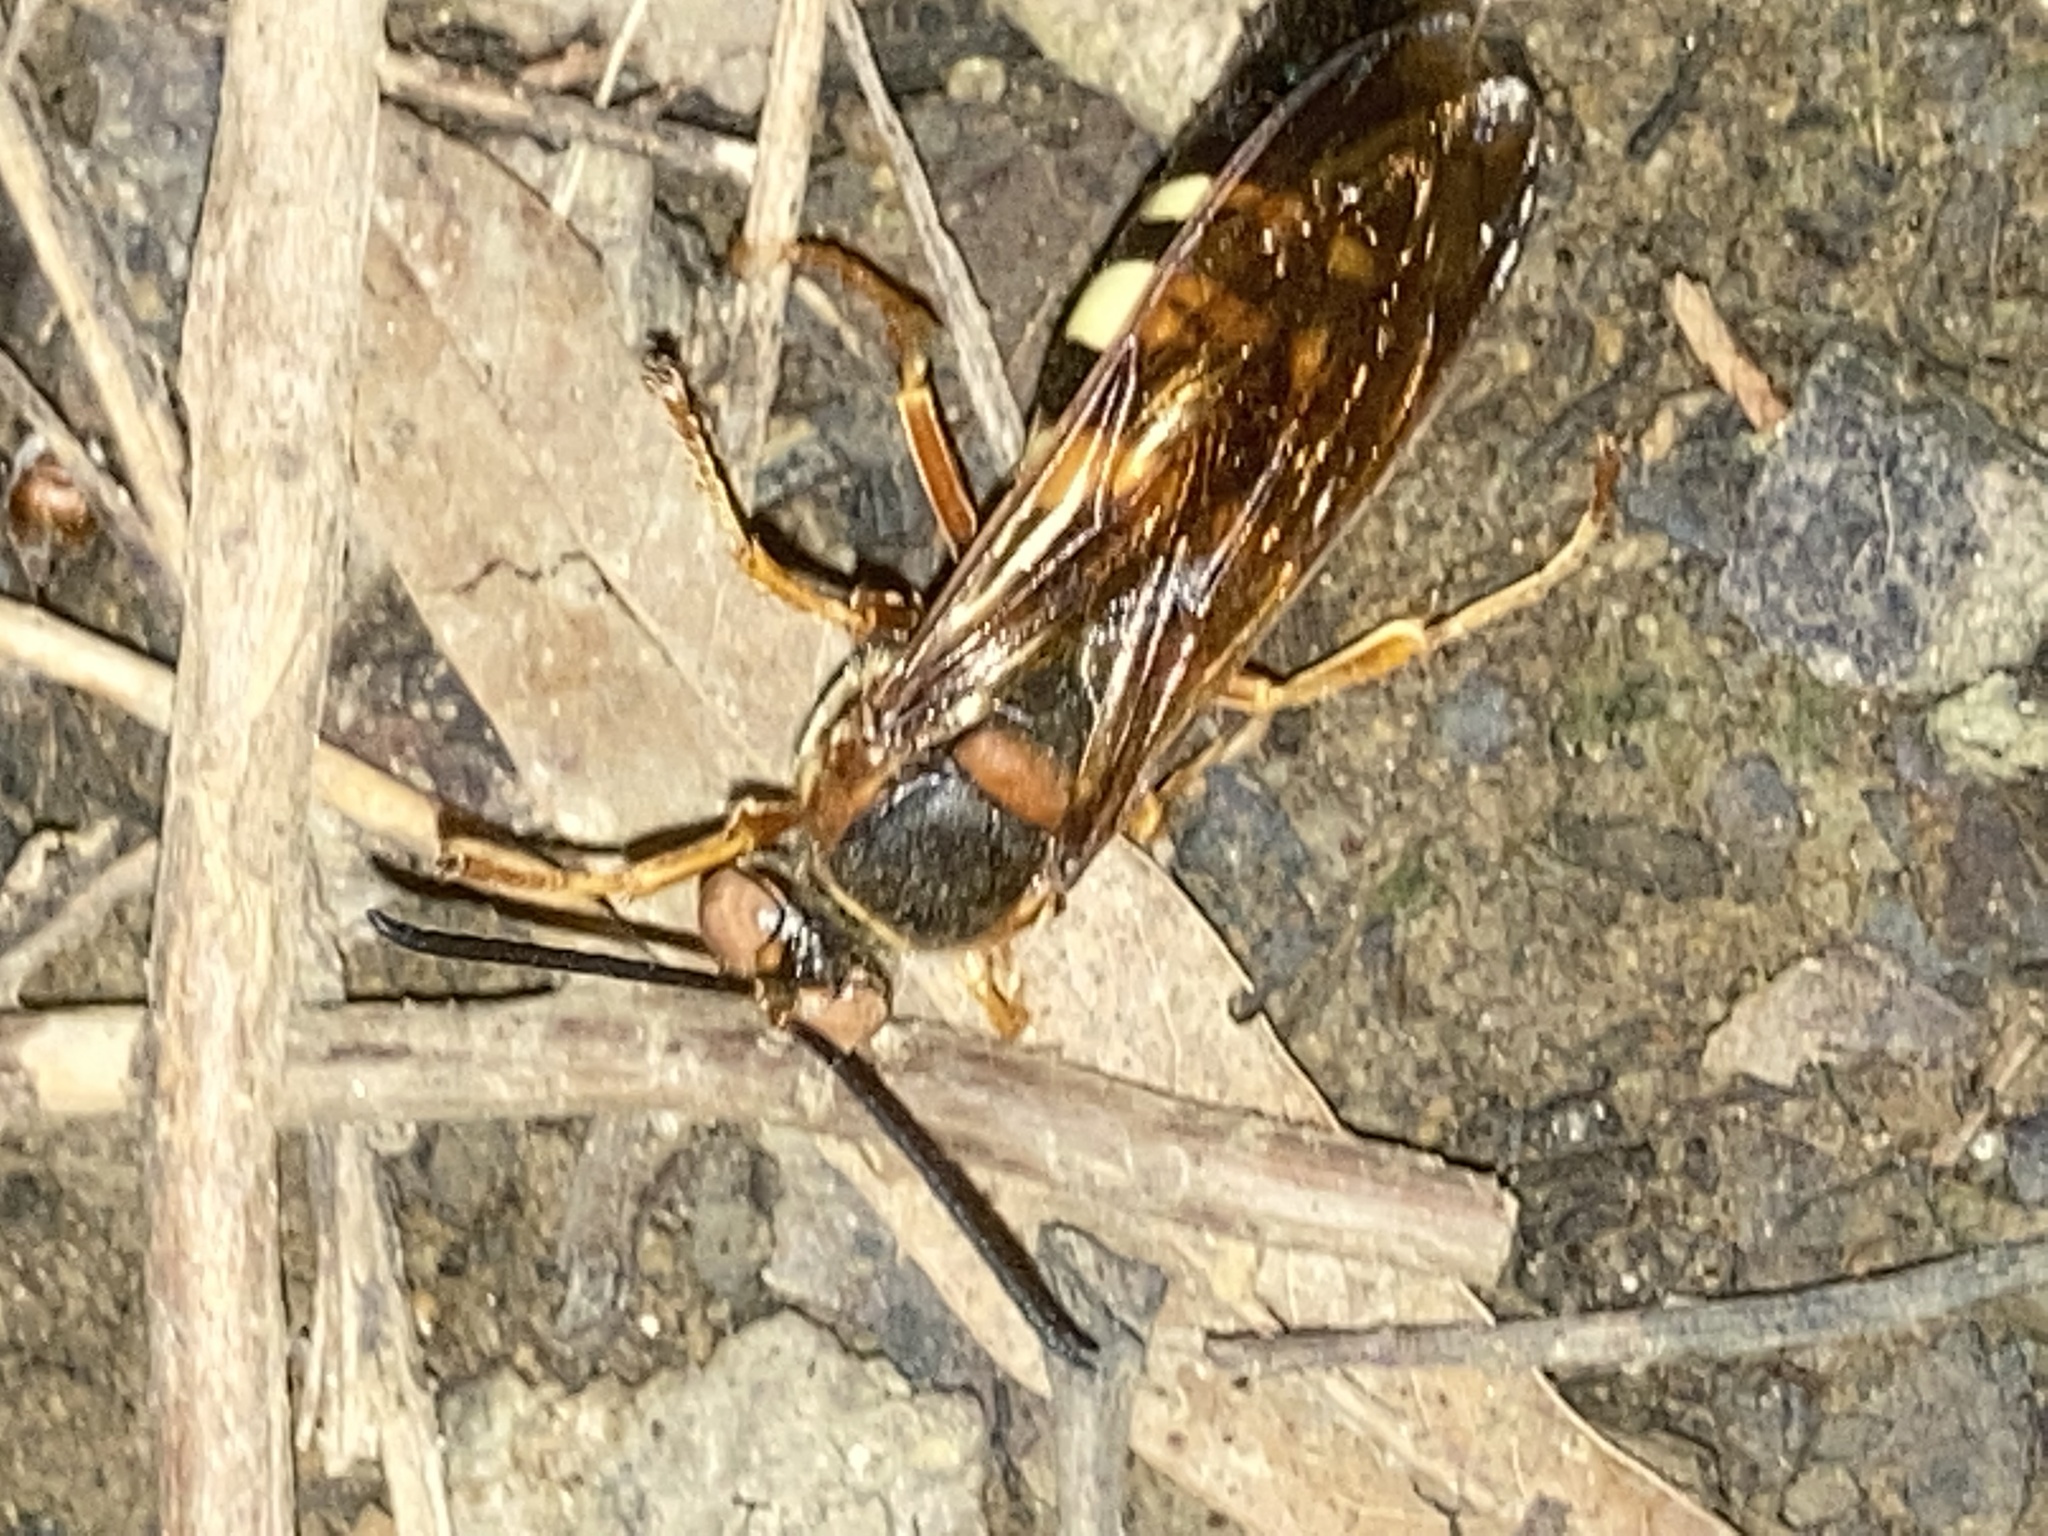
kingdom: Animalia
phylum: Arthropoda
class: Insecta
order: Hymenoptera
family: Crabronidae
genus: Sphecius
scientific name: Sphecius speciosus
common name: Cicada killer
